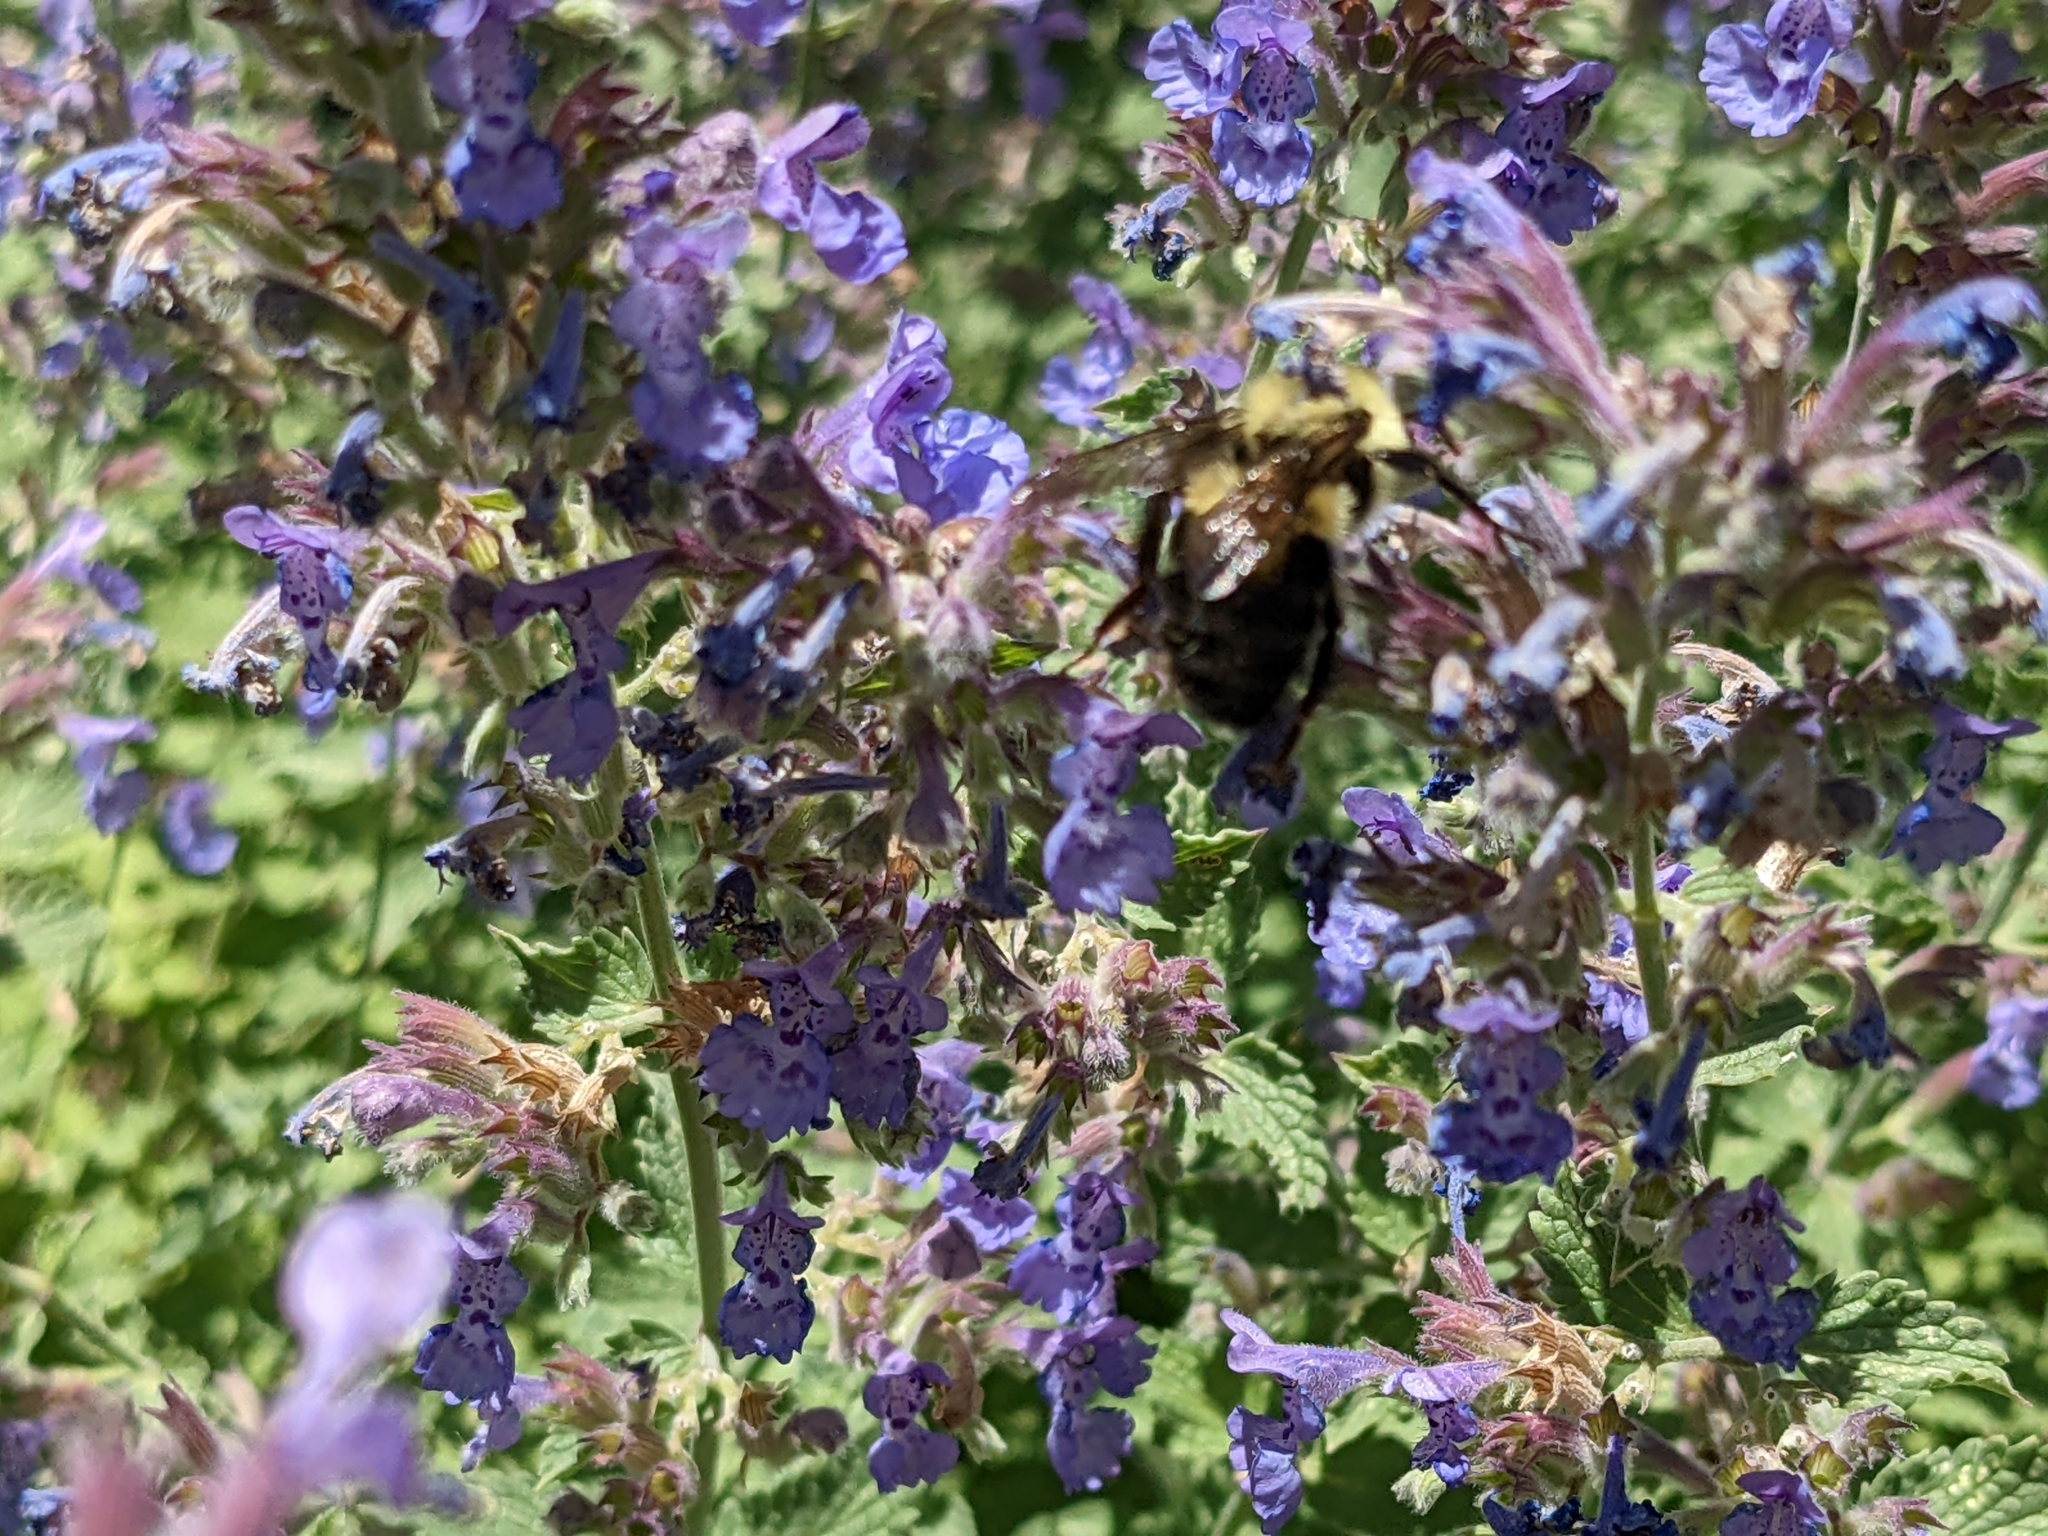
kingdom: Animalia
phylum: Arthropoda
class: Insecta
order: Hymenoptera
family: Apidae
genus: Bombus
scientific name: Bombus bimaculatus
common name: Two-spotted bumble bee
